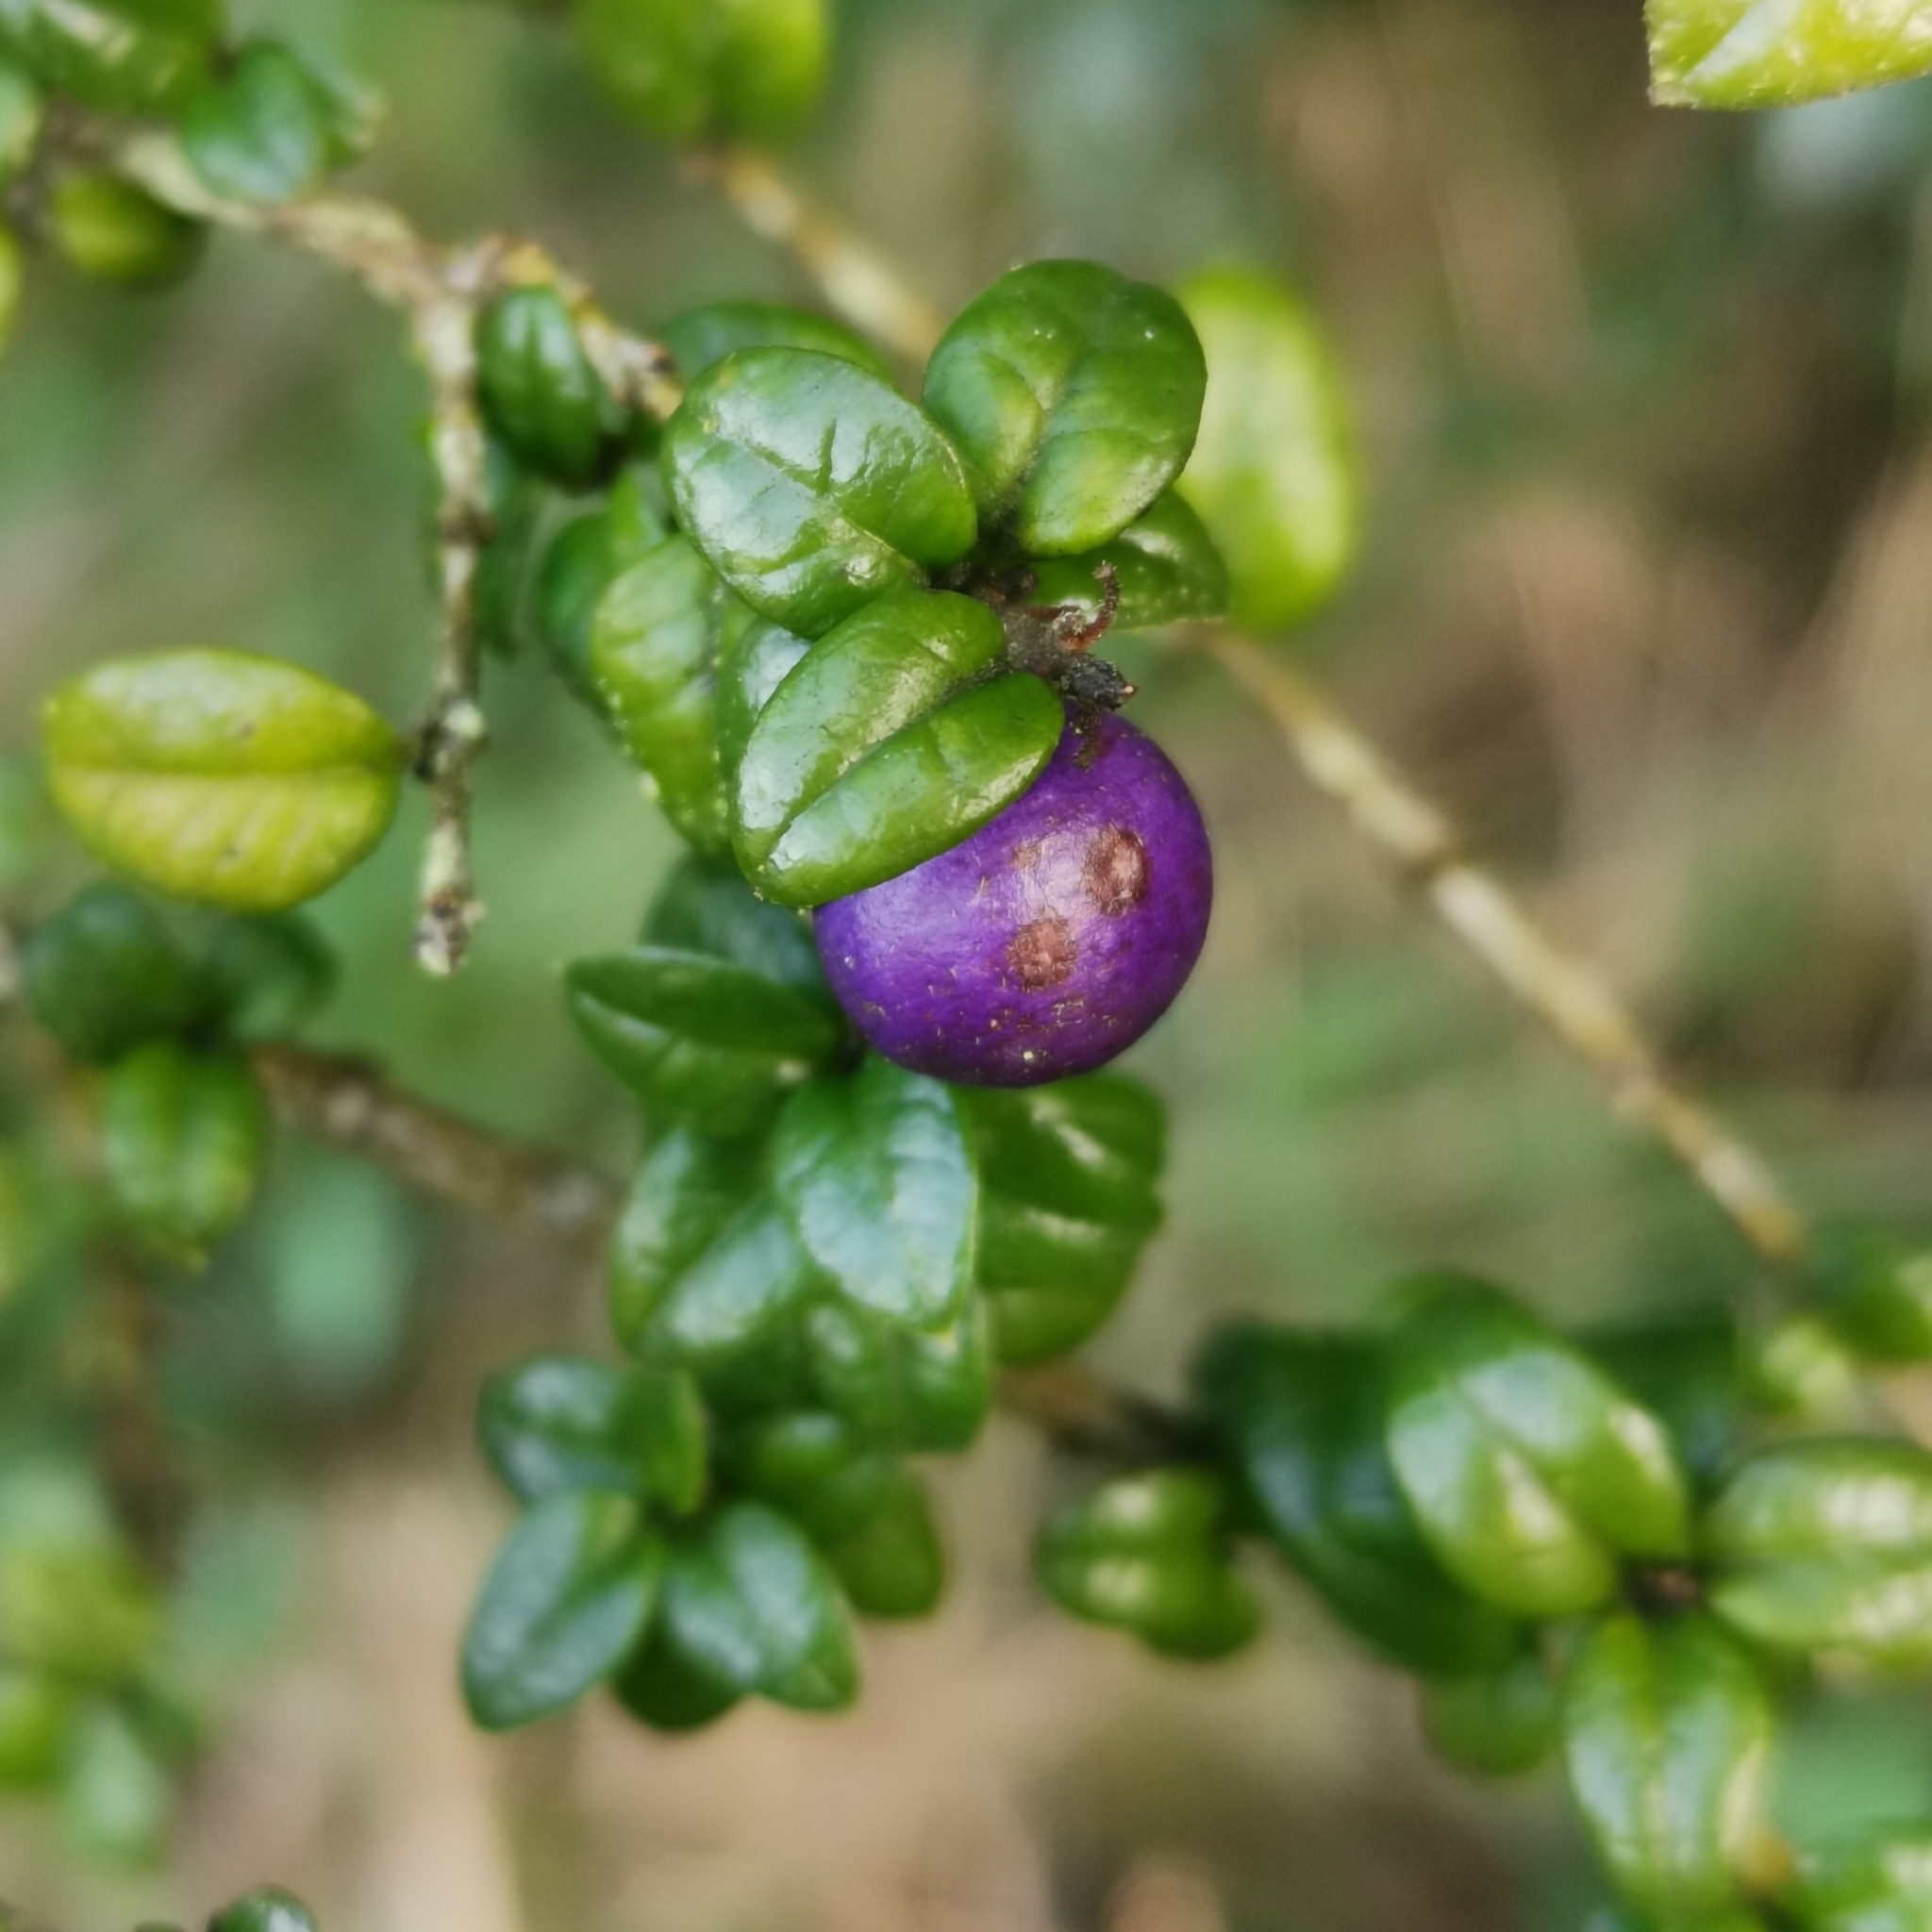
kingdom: Plantae
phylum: Tracheophyta
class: Magnoliopsida
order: Lamiales
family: Verbenaceae
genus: Rhaphithamnus
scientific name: Rhaphithamnus spinosus
